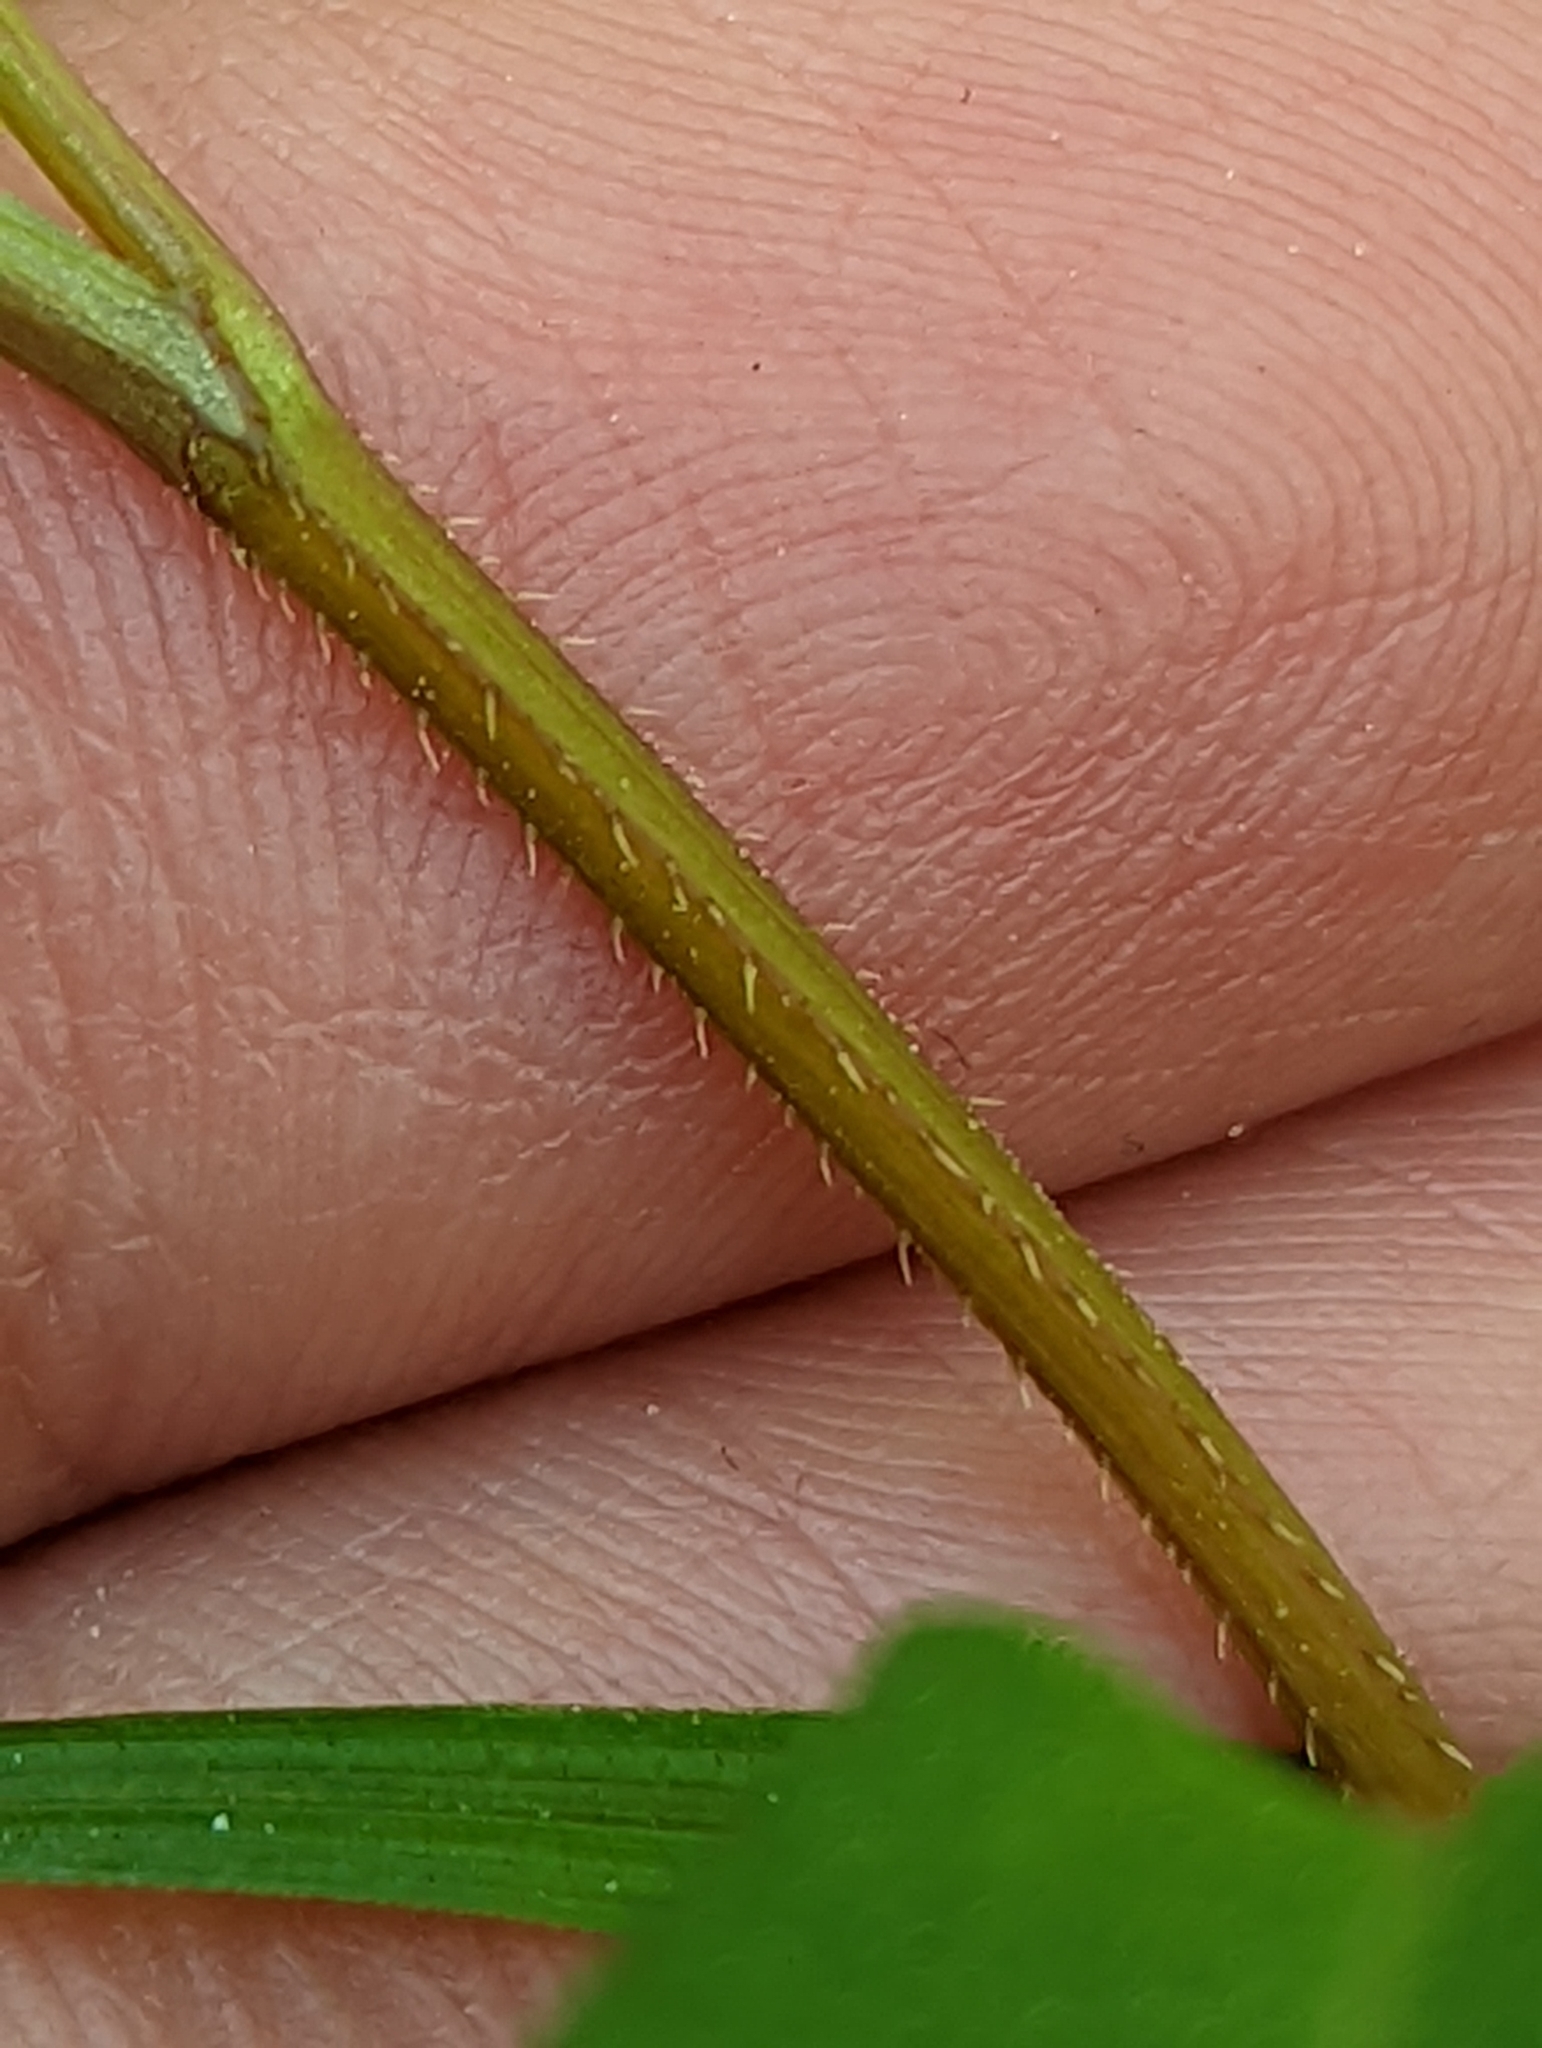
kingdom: Plantae
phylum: Tracheophyta
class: Magnoliopsida
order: Caryophyllales
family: Polygonaceae
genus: Persicaria
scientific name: Persicaria sagittata
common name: American tearthumb
